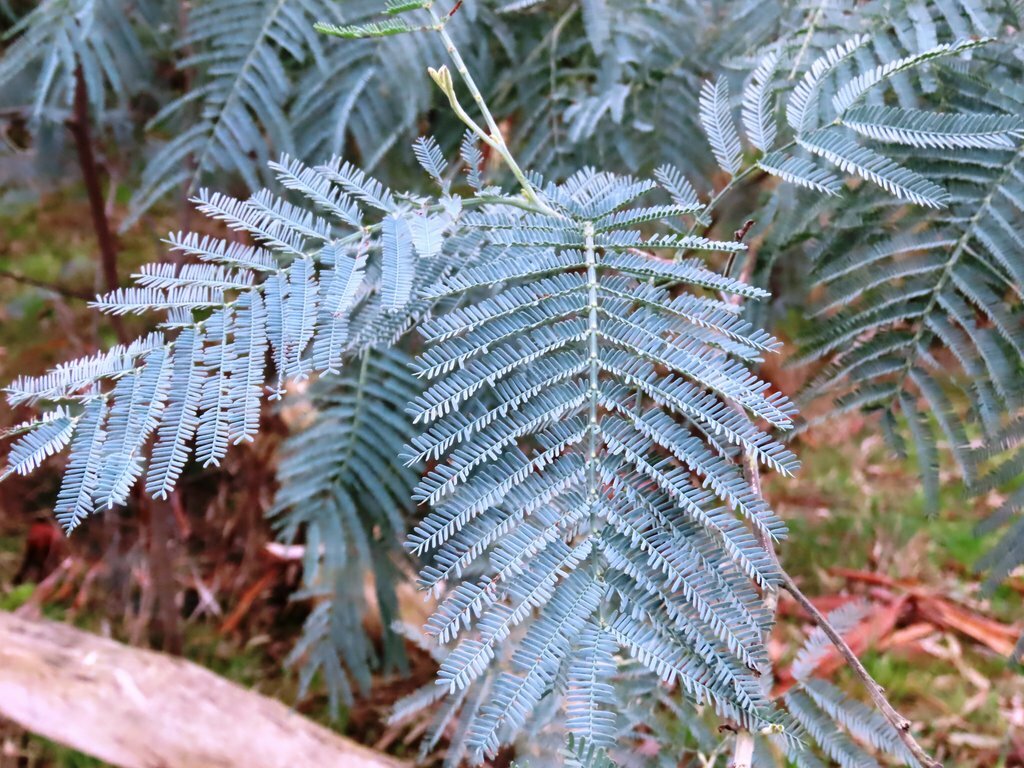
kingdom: Plantae
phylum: Tracheophyta
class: Magnoliopsida
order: Fabales
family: Fabaceae
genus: Acacia
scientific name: Acacia dealbata
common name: Silver wattle
